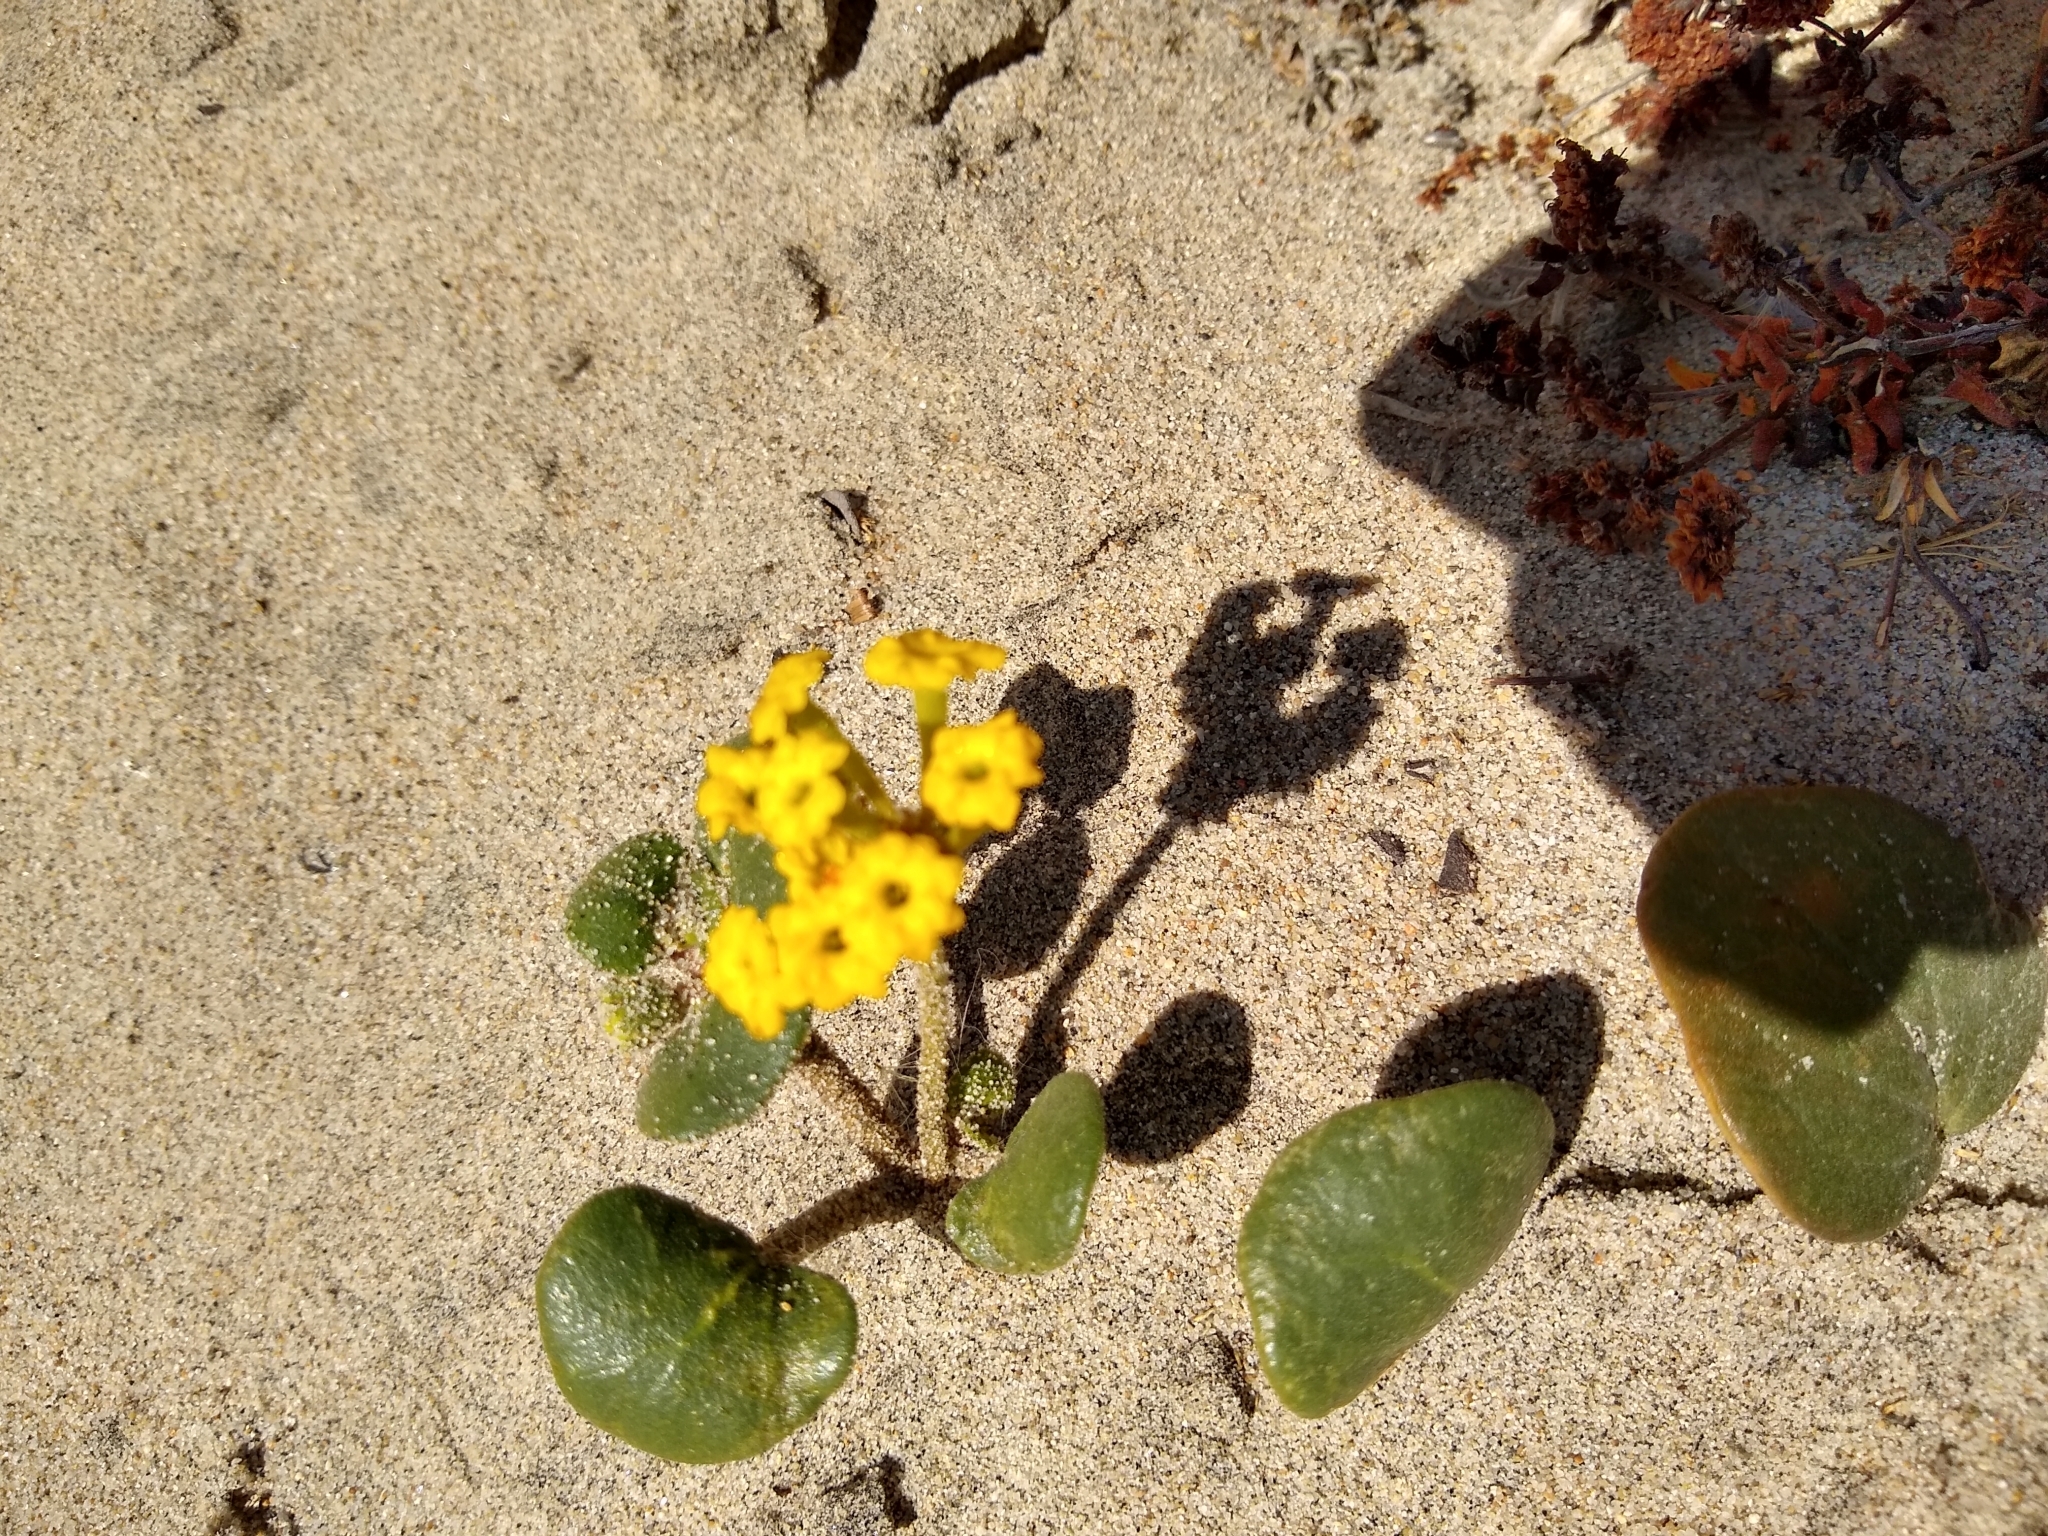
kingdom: Plantae
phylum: Tracheophyta
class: Magnoliopsida
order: Caryophyllales
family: Nyctaginaceae
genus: Abronia
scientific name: Abronia latifolia
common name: Yellow sand-verbena
